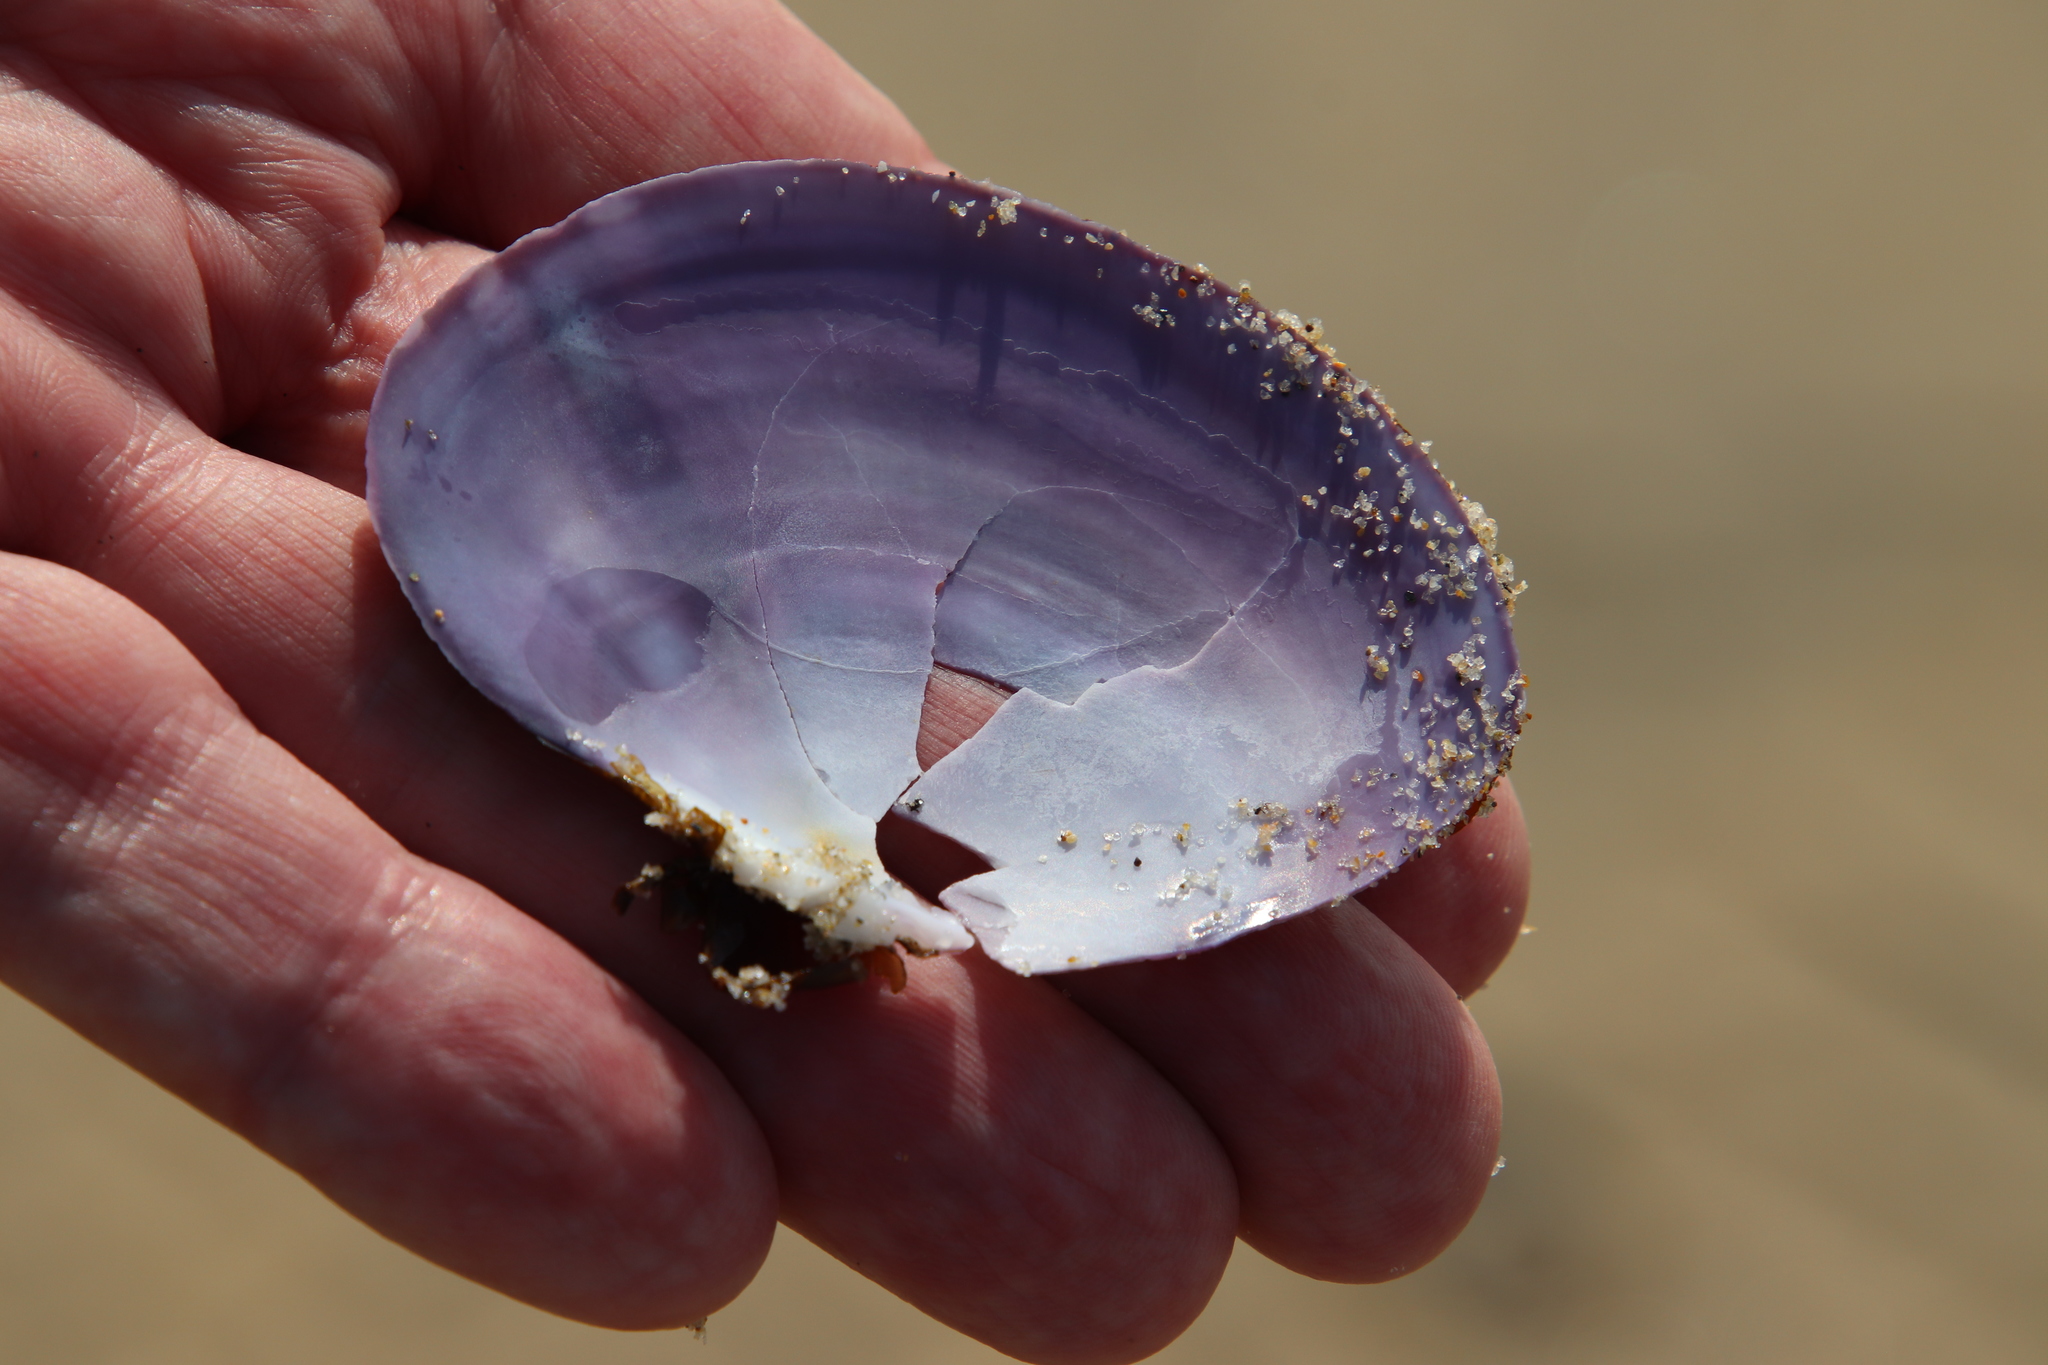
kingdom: Animalia
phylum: Mollusca
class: Bivalvia
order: Cardiida
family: Psammobiidae
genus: Nuttallia
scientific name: Nuttallia nuttallii
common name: California mahogany-clam
